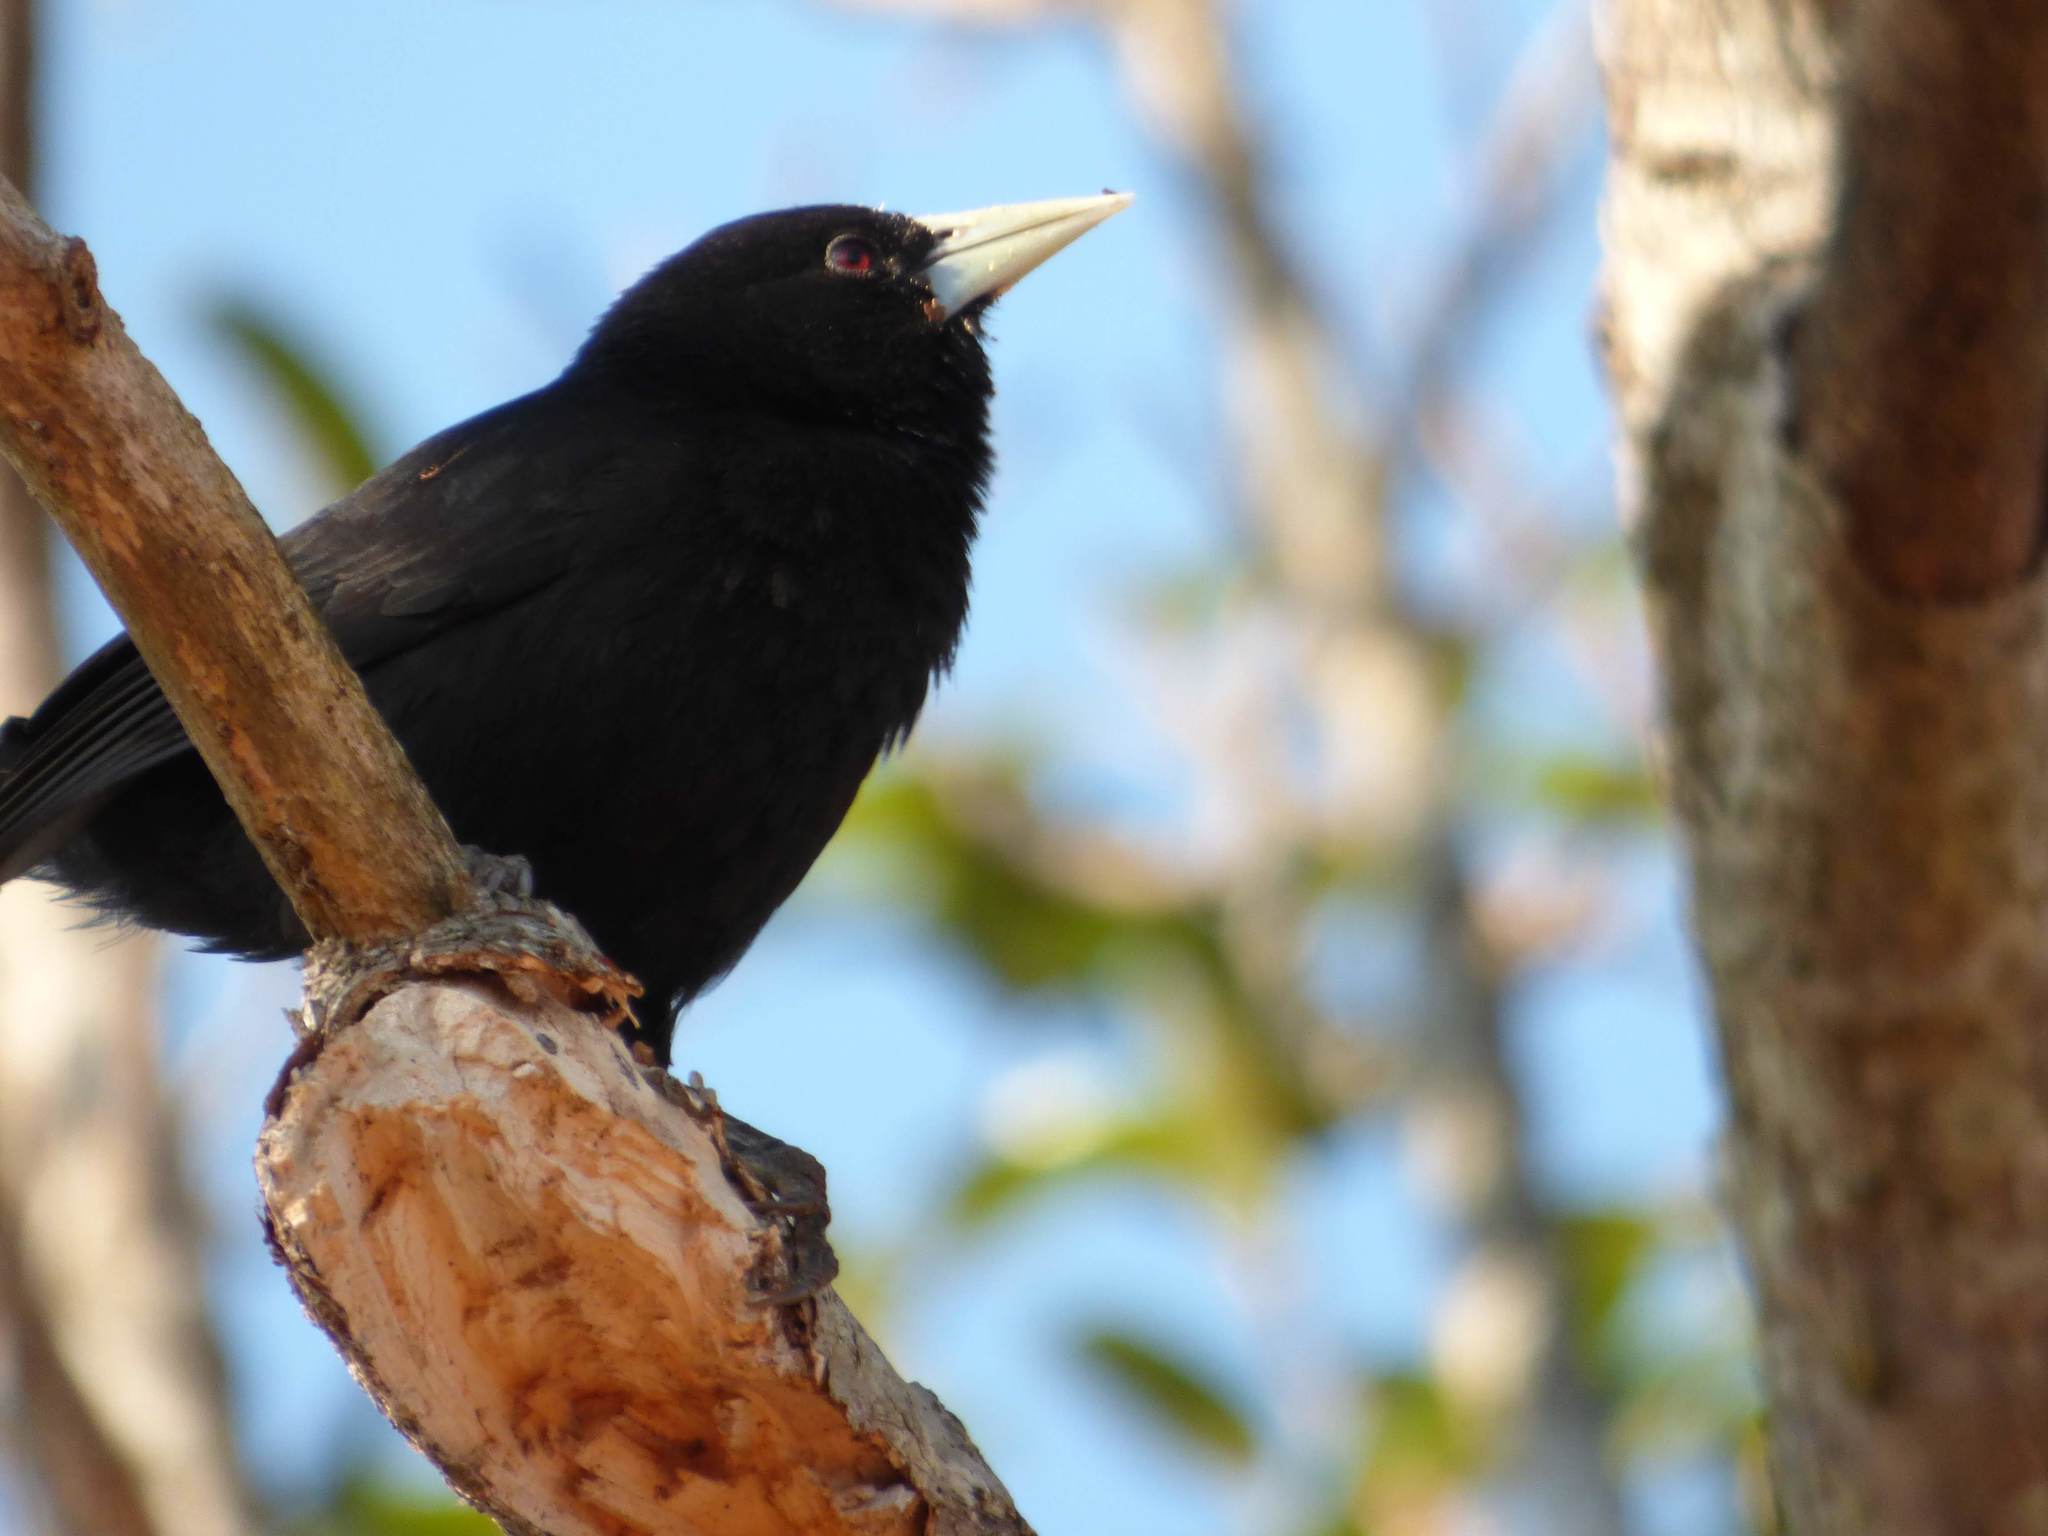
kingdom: Animalia
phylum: Chordata
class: Aves
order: Passeriformes
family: Icteridae
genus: Cacicus
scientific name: Cacicus solitarius
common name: Solitary cacique
